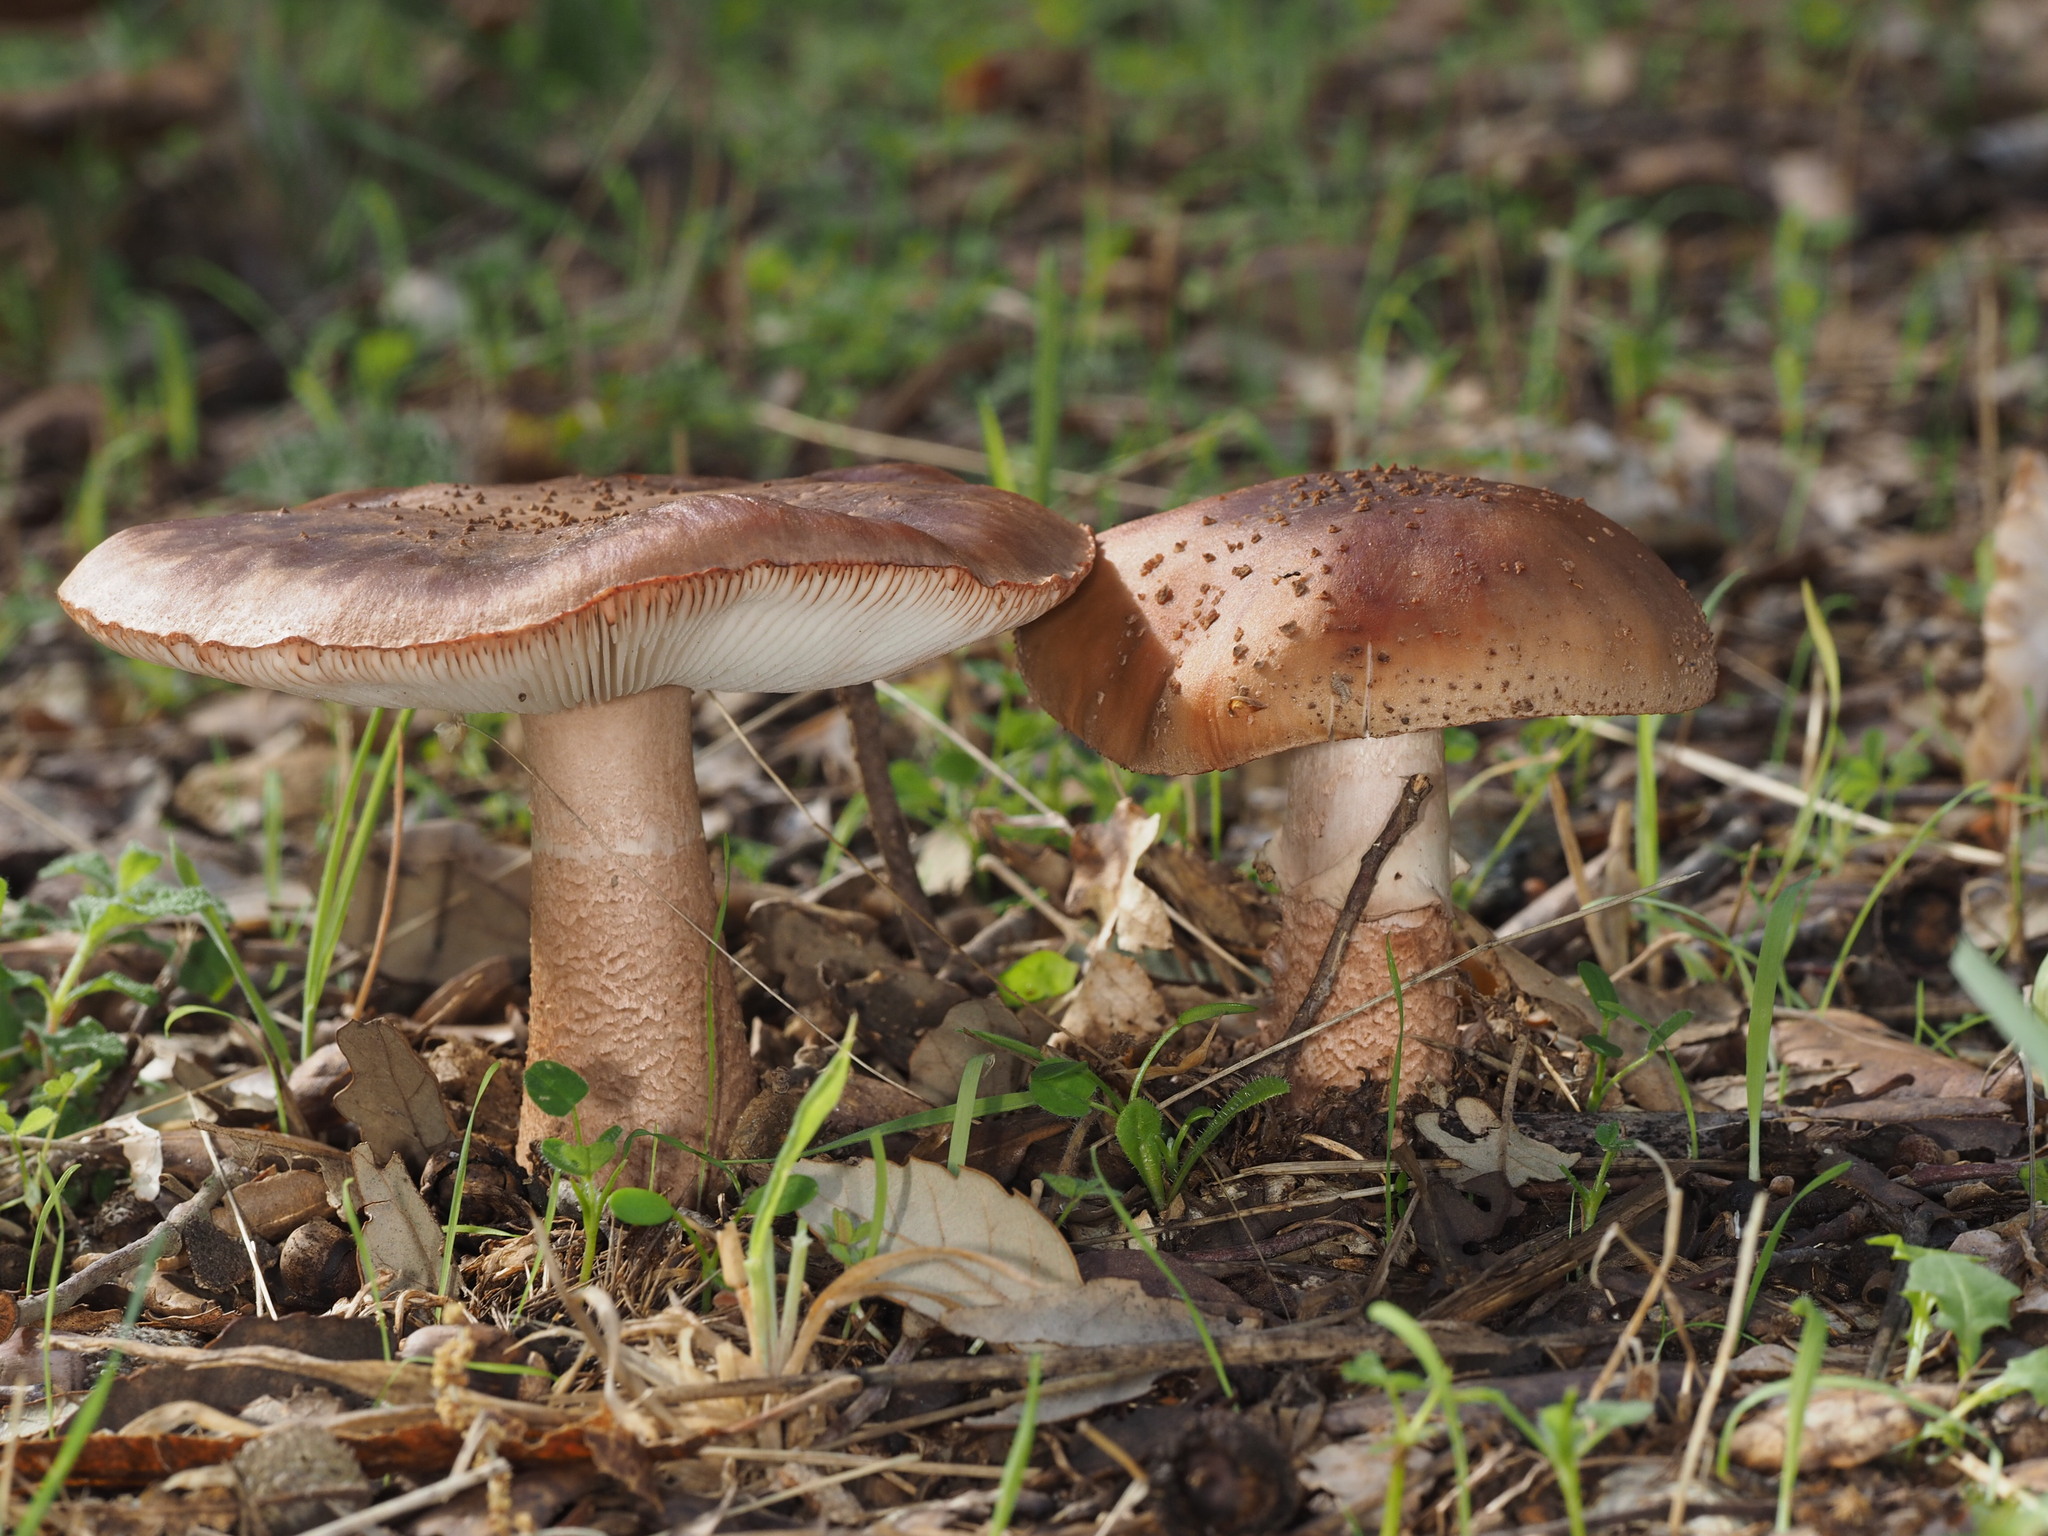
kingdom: Fungi
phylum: Basidiomycota
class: Agaricomycetes
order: Agaricales
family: Amanitaceae
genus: Amanita
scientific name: Amanita rubescens
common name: Blusher
